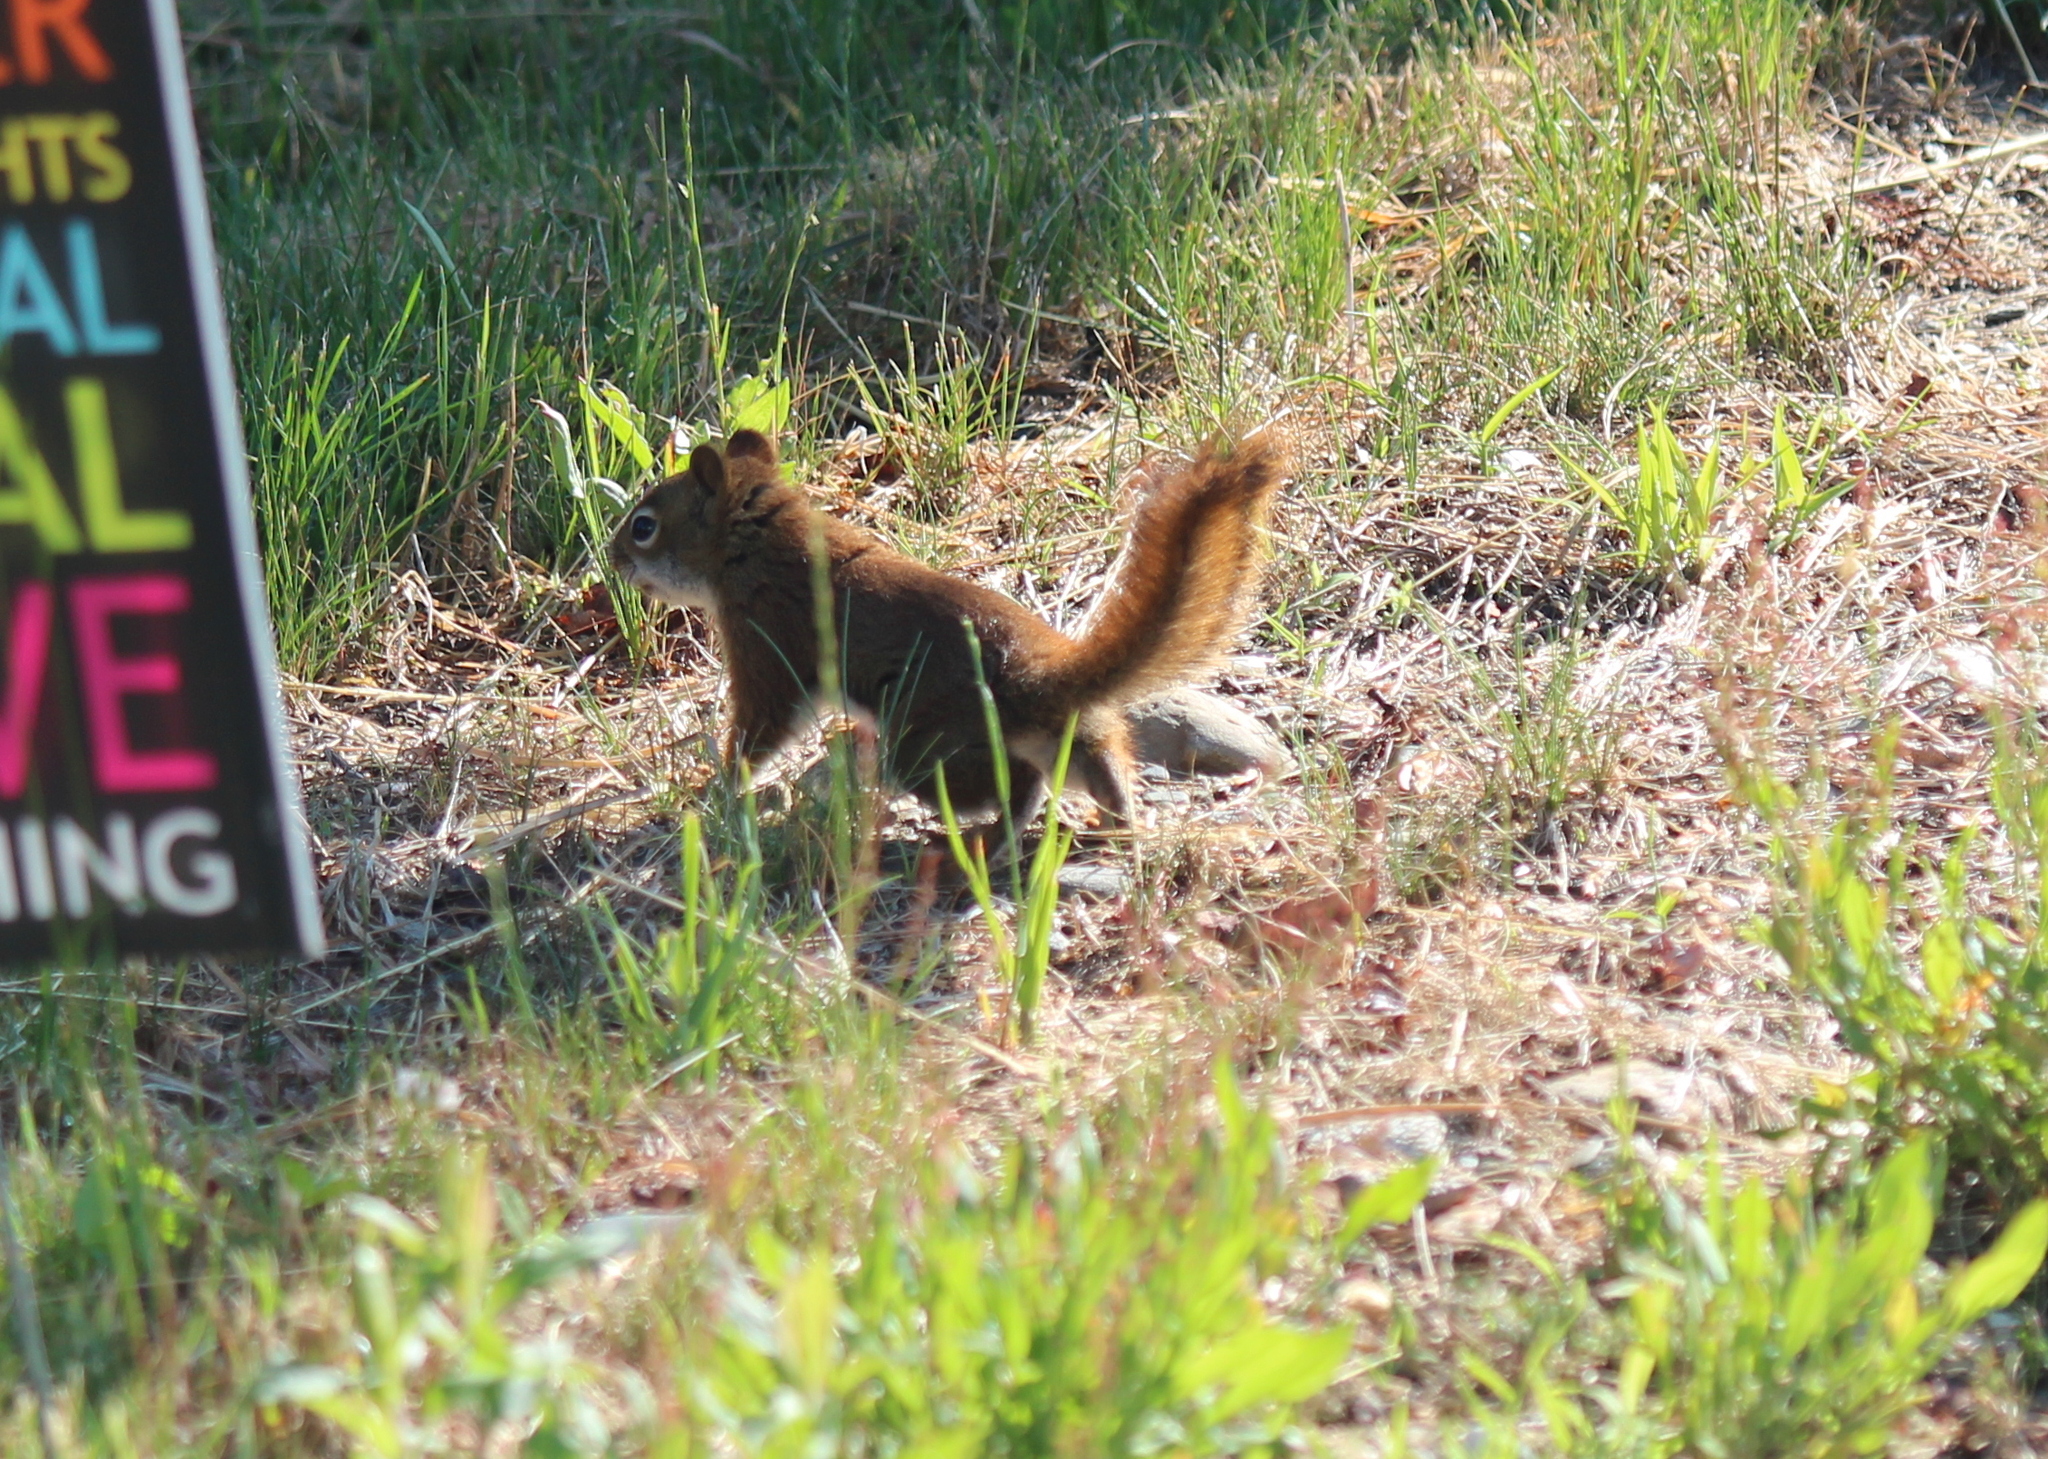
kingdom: Animalia
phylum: Chordata
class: Mammalia
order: Rodentia
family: Sciuridae
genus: Tamiasciurus
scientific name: Tamiasciurus hudsonicus
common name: Red squirrel
